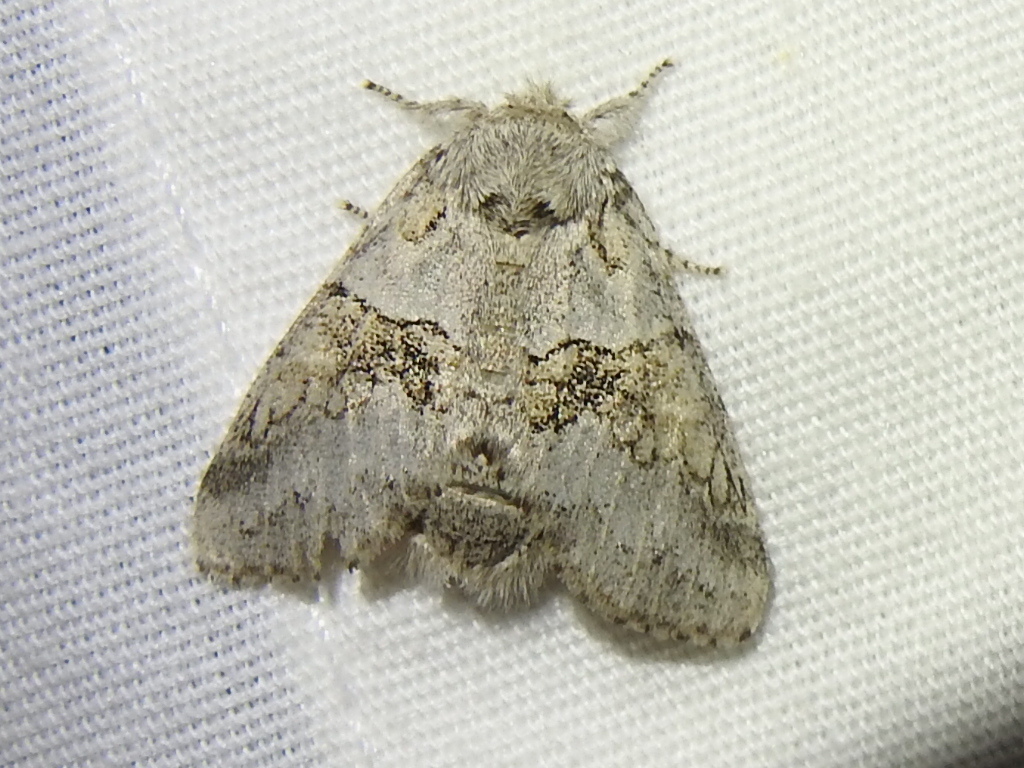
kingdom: Animalia
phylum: Arthropoda
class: Insecta
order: Lepidoptera
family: Notodontidae
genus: Gluphisia
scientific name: Gluphisia septentrionis
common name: Common gluphisia
